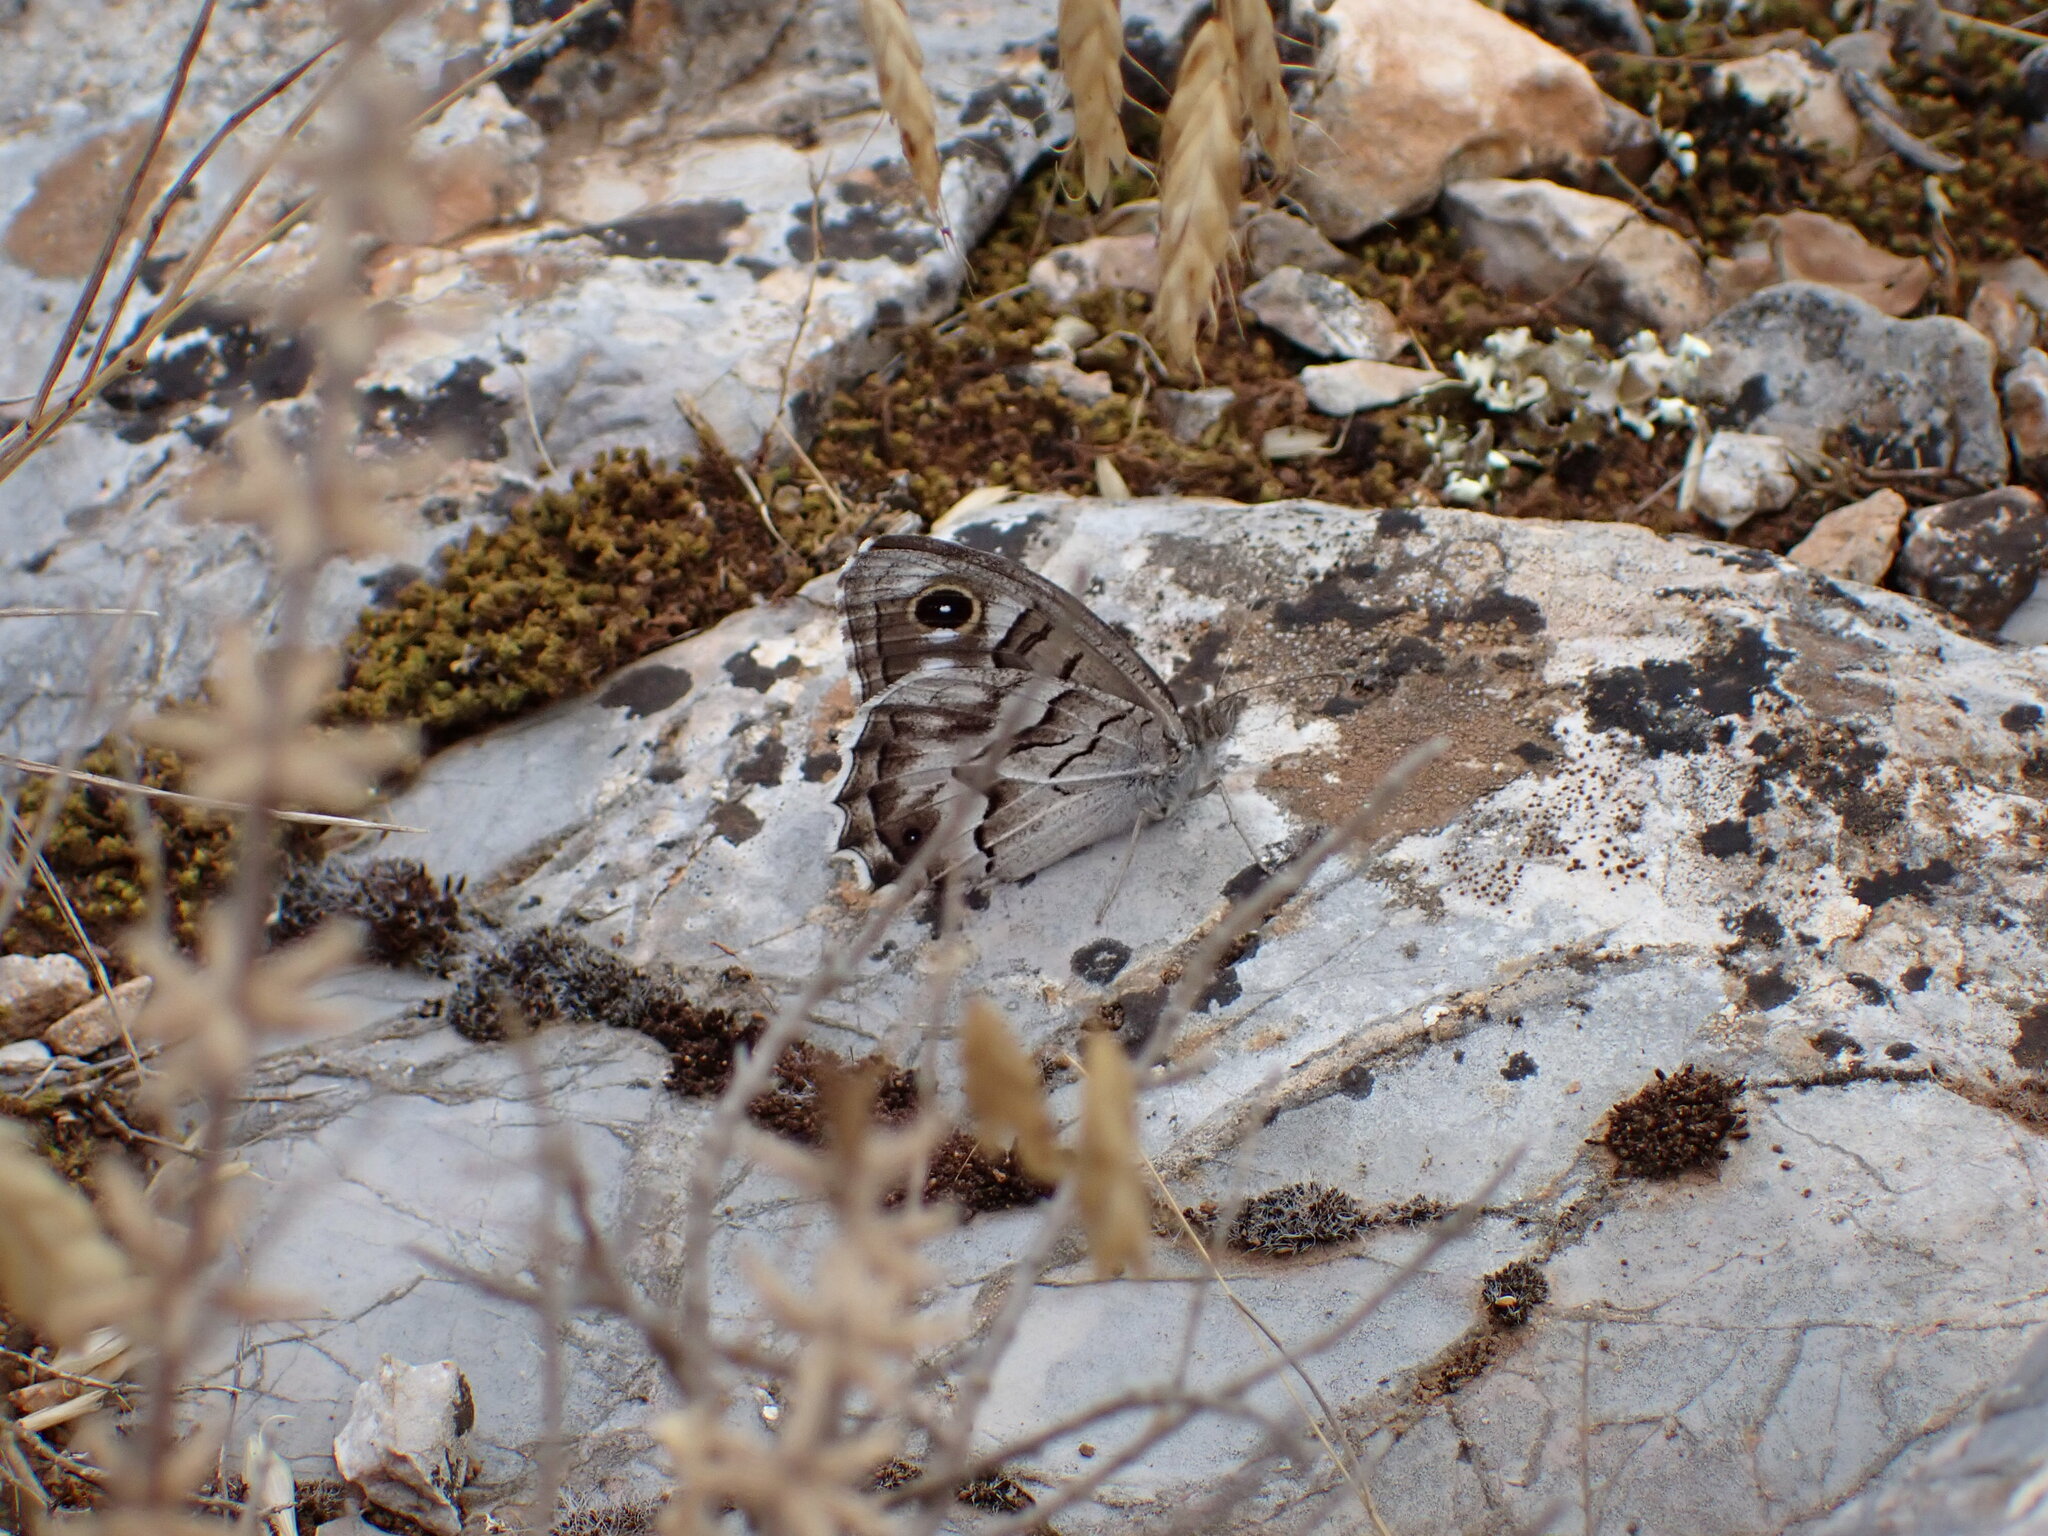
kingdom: Animalia
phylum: Arthropoda
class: Insecta
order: Lepidoptera
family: Nymphalidae
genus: Hipparchia
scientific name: Hipparchia fidia
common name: Striped grayling
